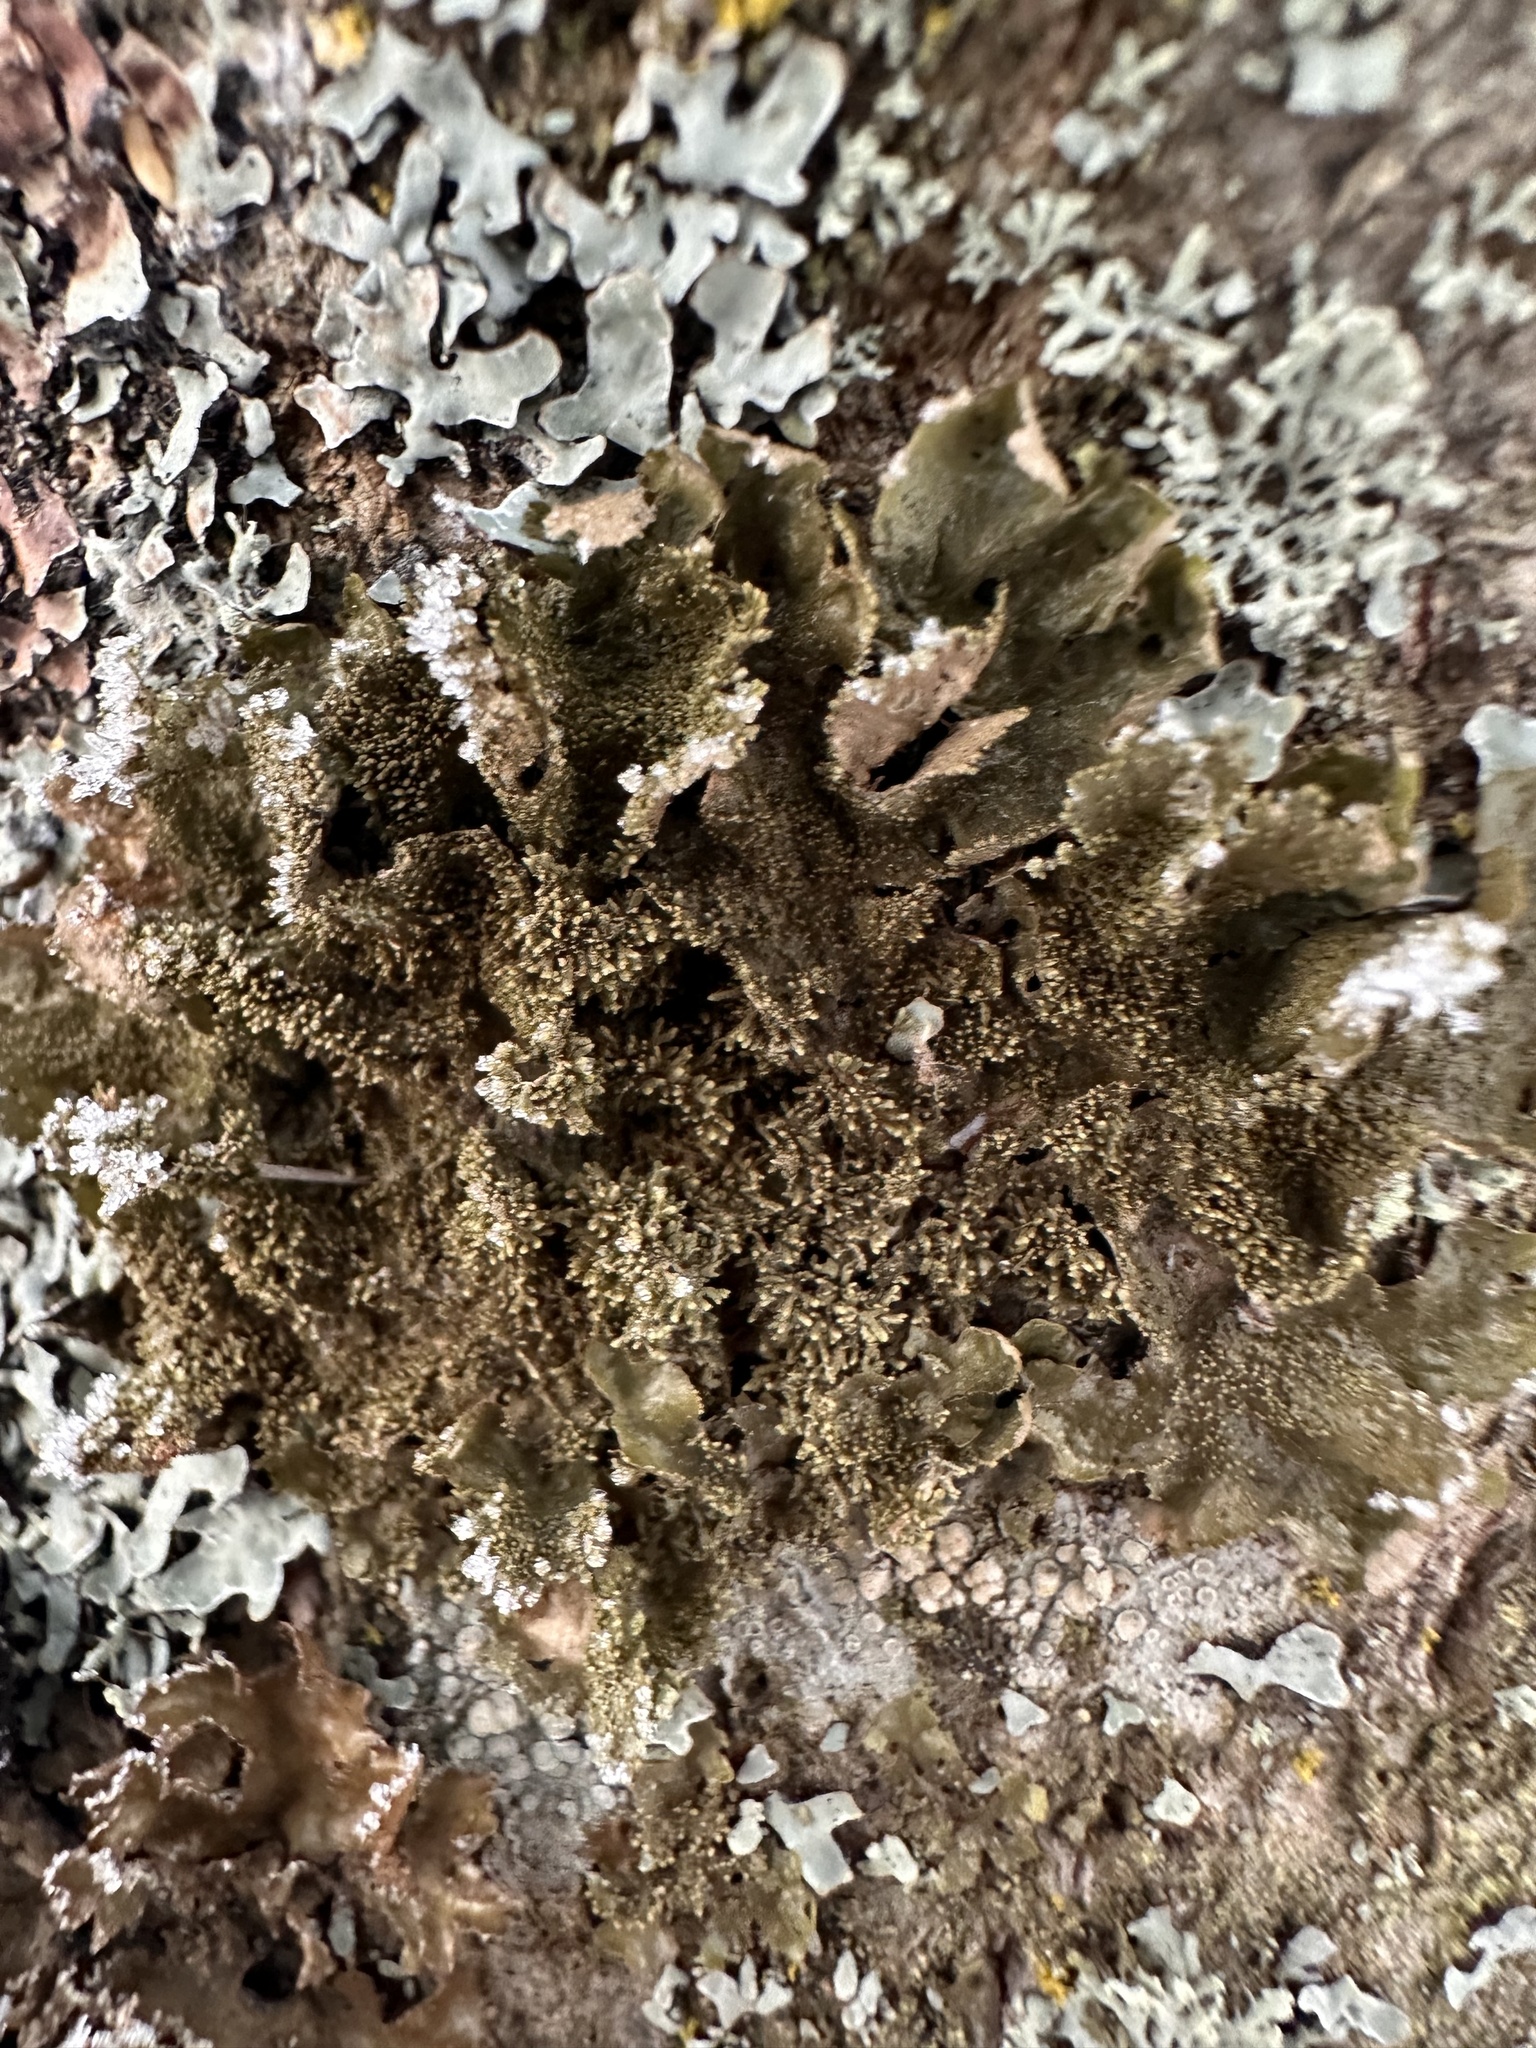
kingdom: Fungi
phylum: Ascomycota
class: Lecanoromycetes
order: Lecanorales
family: Parmeliaceae
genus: Melanohalea
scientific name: Melanohalea exasperatula
